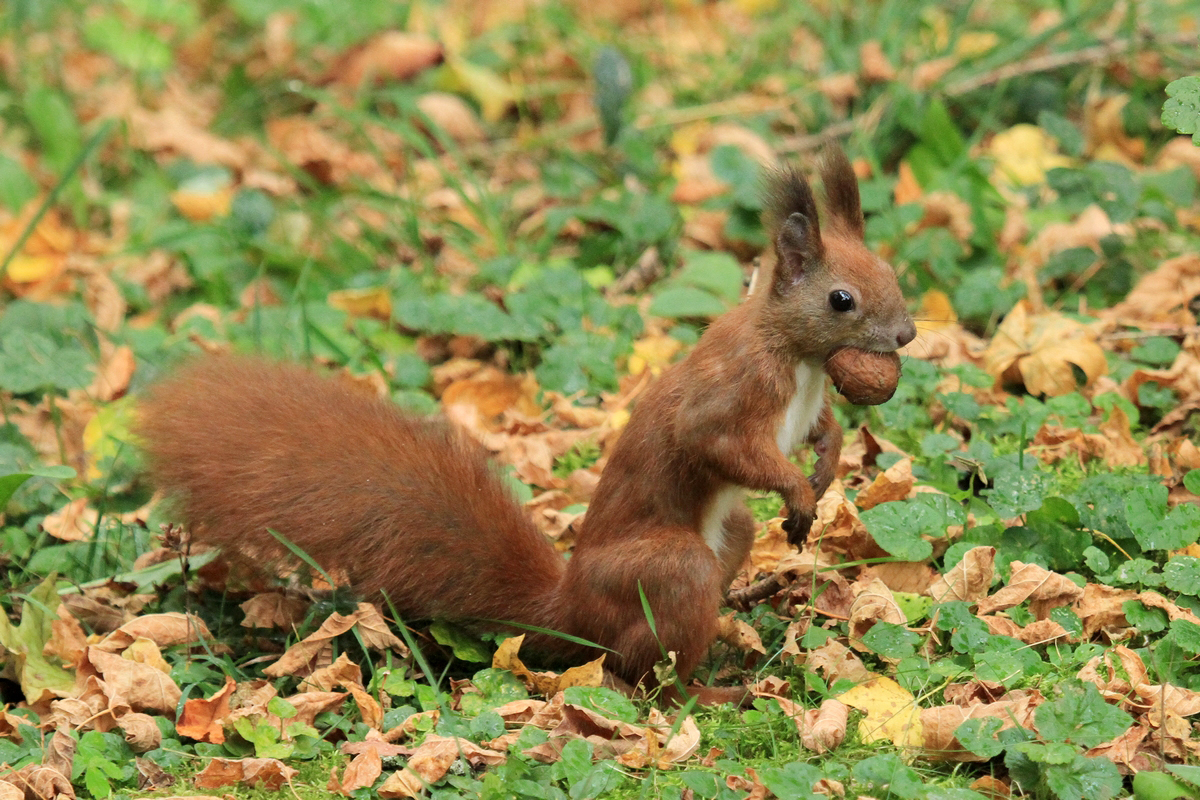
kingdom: Animalia
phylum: Chordata
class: Mammalia
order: Rodentia
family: Sciuridae
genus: Sciurus
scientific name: Sciurus vulgaris
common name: Eurasian red squirrel
